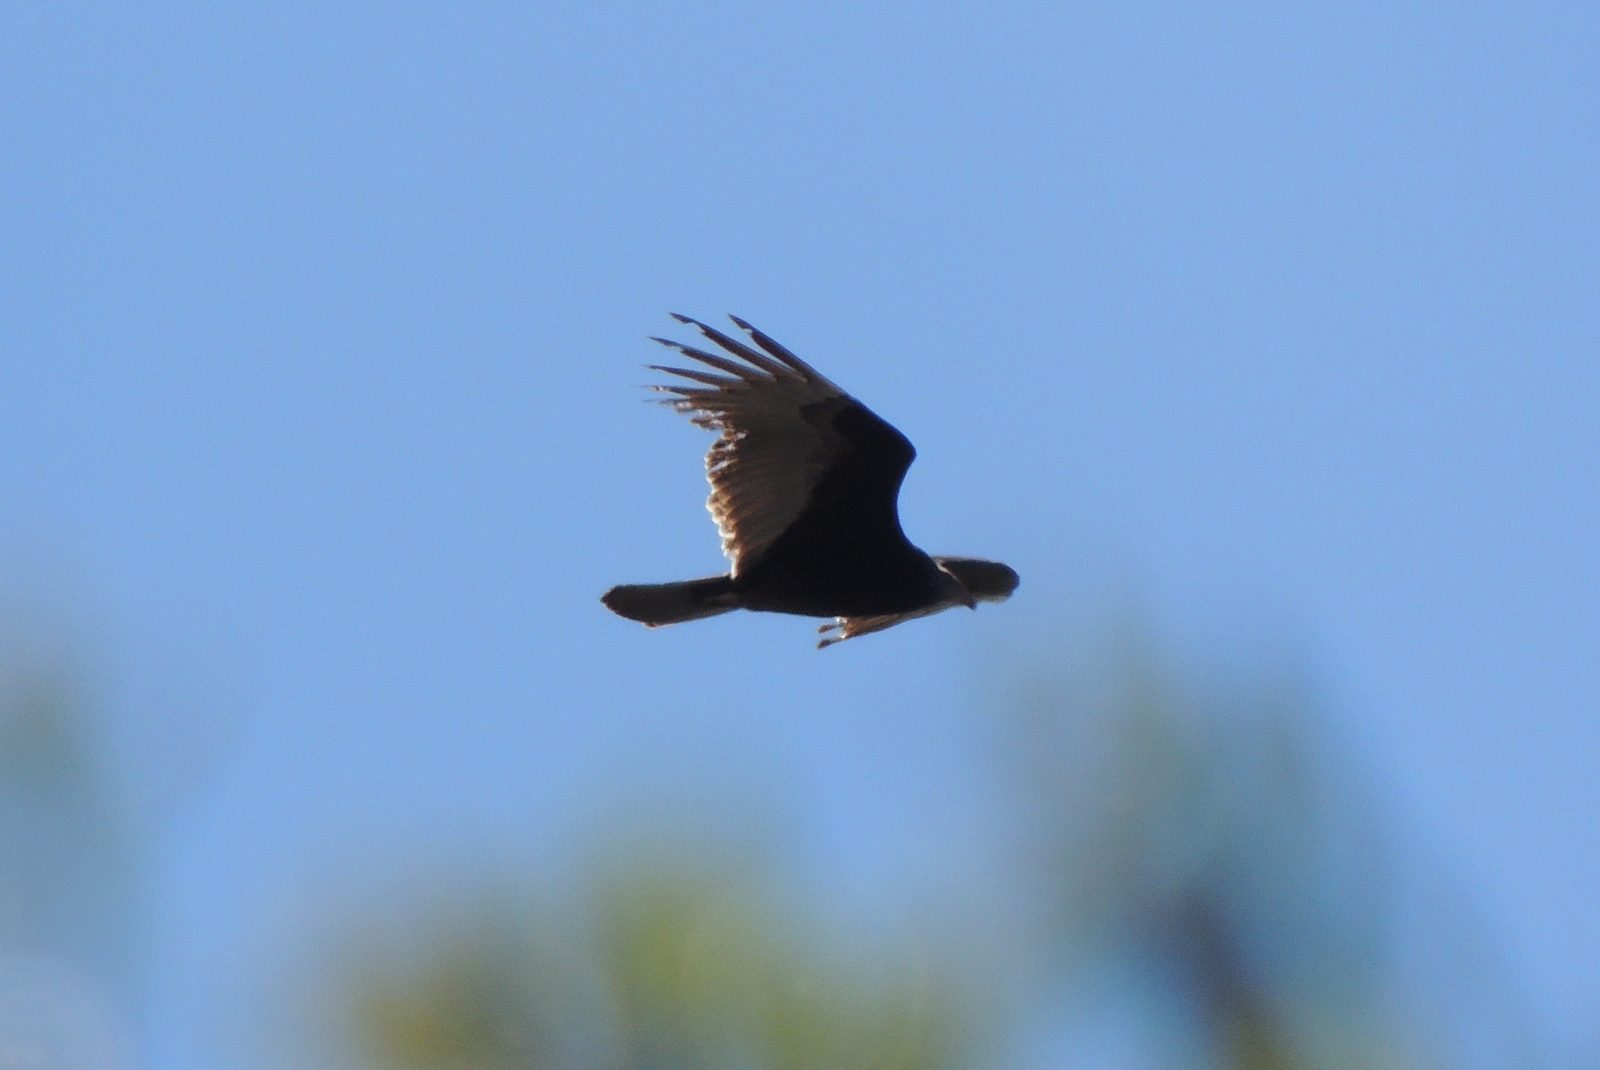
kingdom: Animalia
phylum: Chordata
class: Aves
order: Accipitriformes
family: Cathartidae
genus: Cathartes
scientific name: Cathartes aura
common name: Turkey vulture
